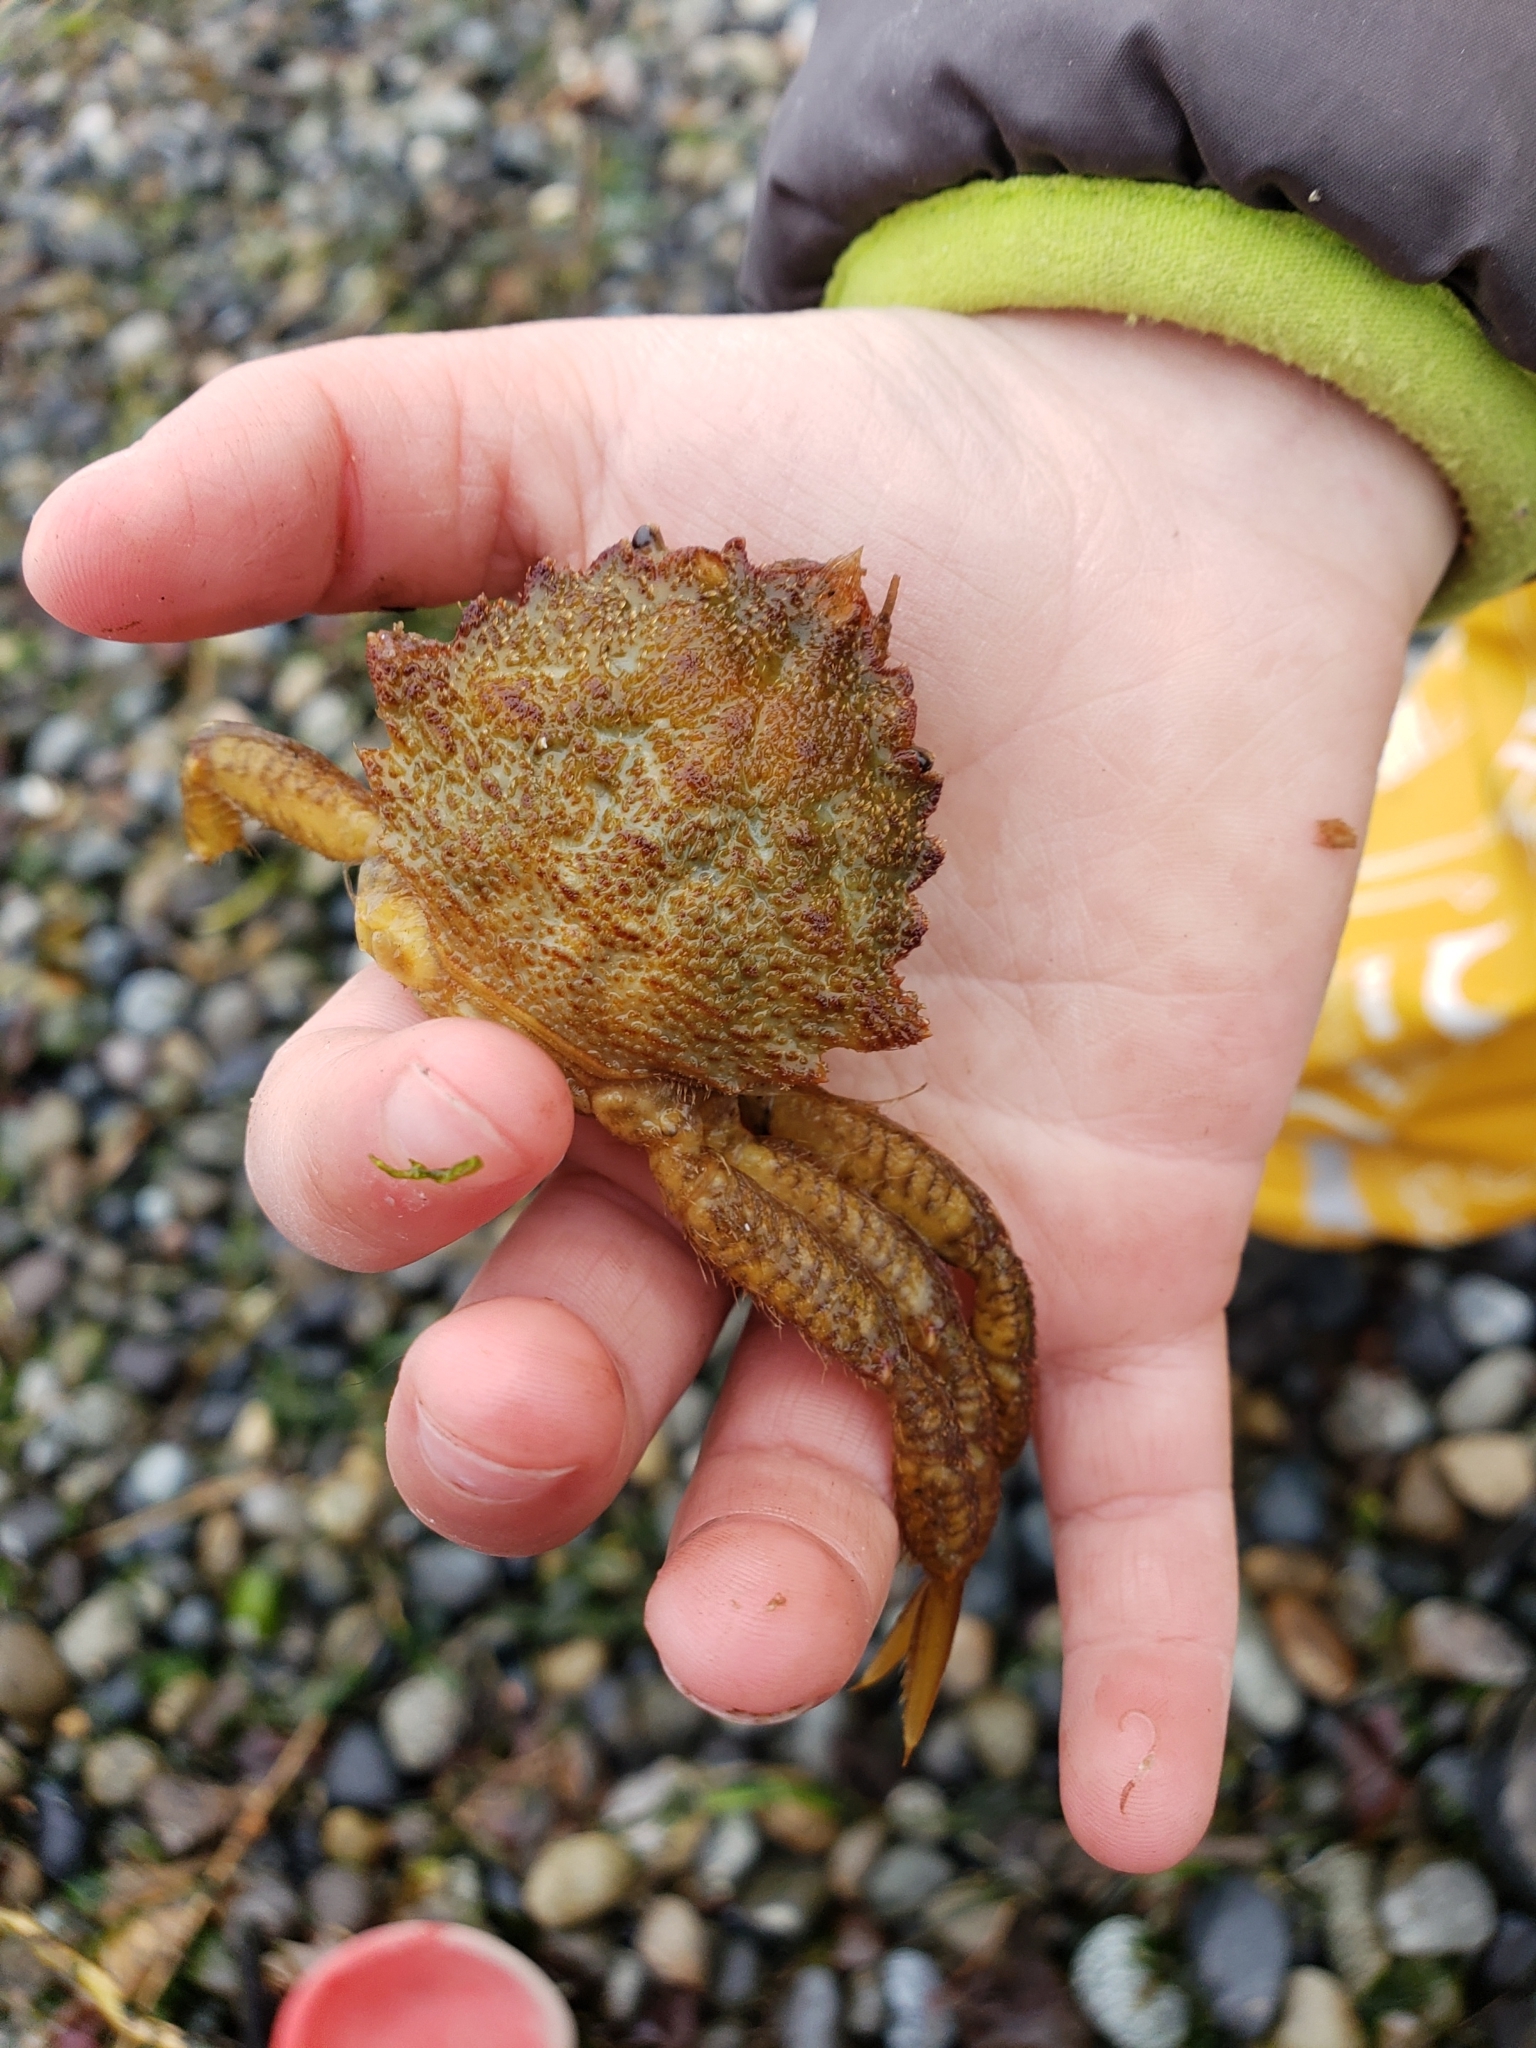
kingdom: Animalia
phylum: Arthropoda
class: Malacostraca
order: Decapoda
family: Cheiragonidae
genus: Telmessus
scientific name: Telmessus cheiragonus
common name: Helmet crab
